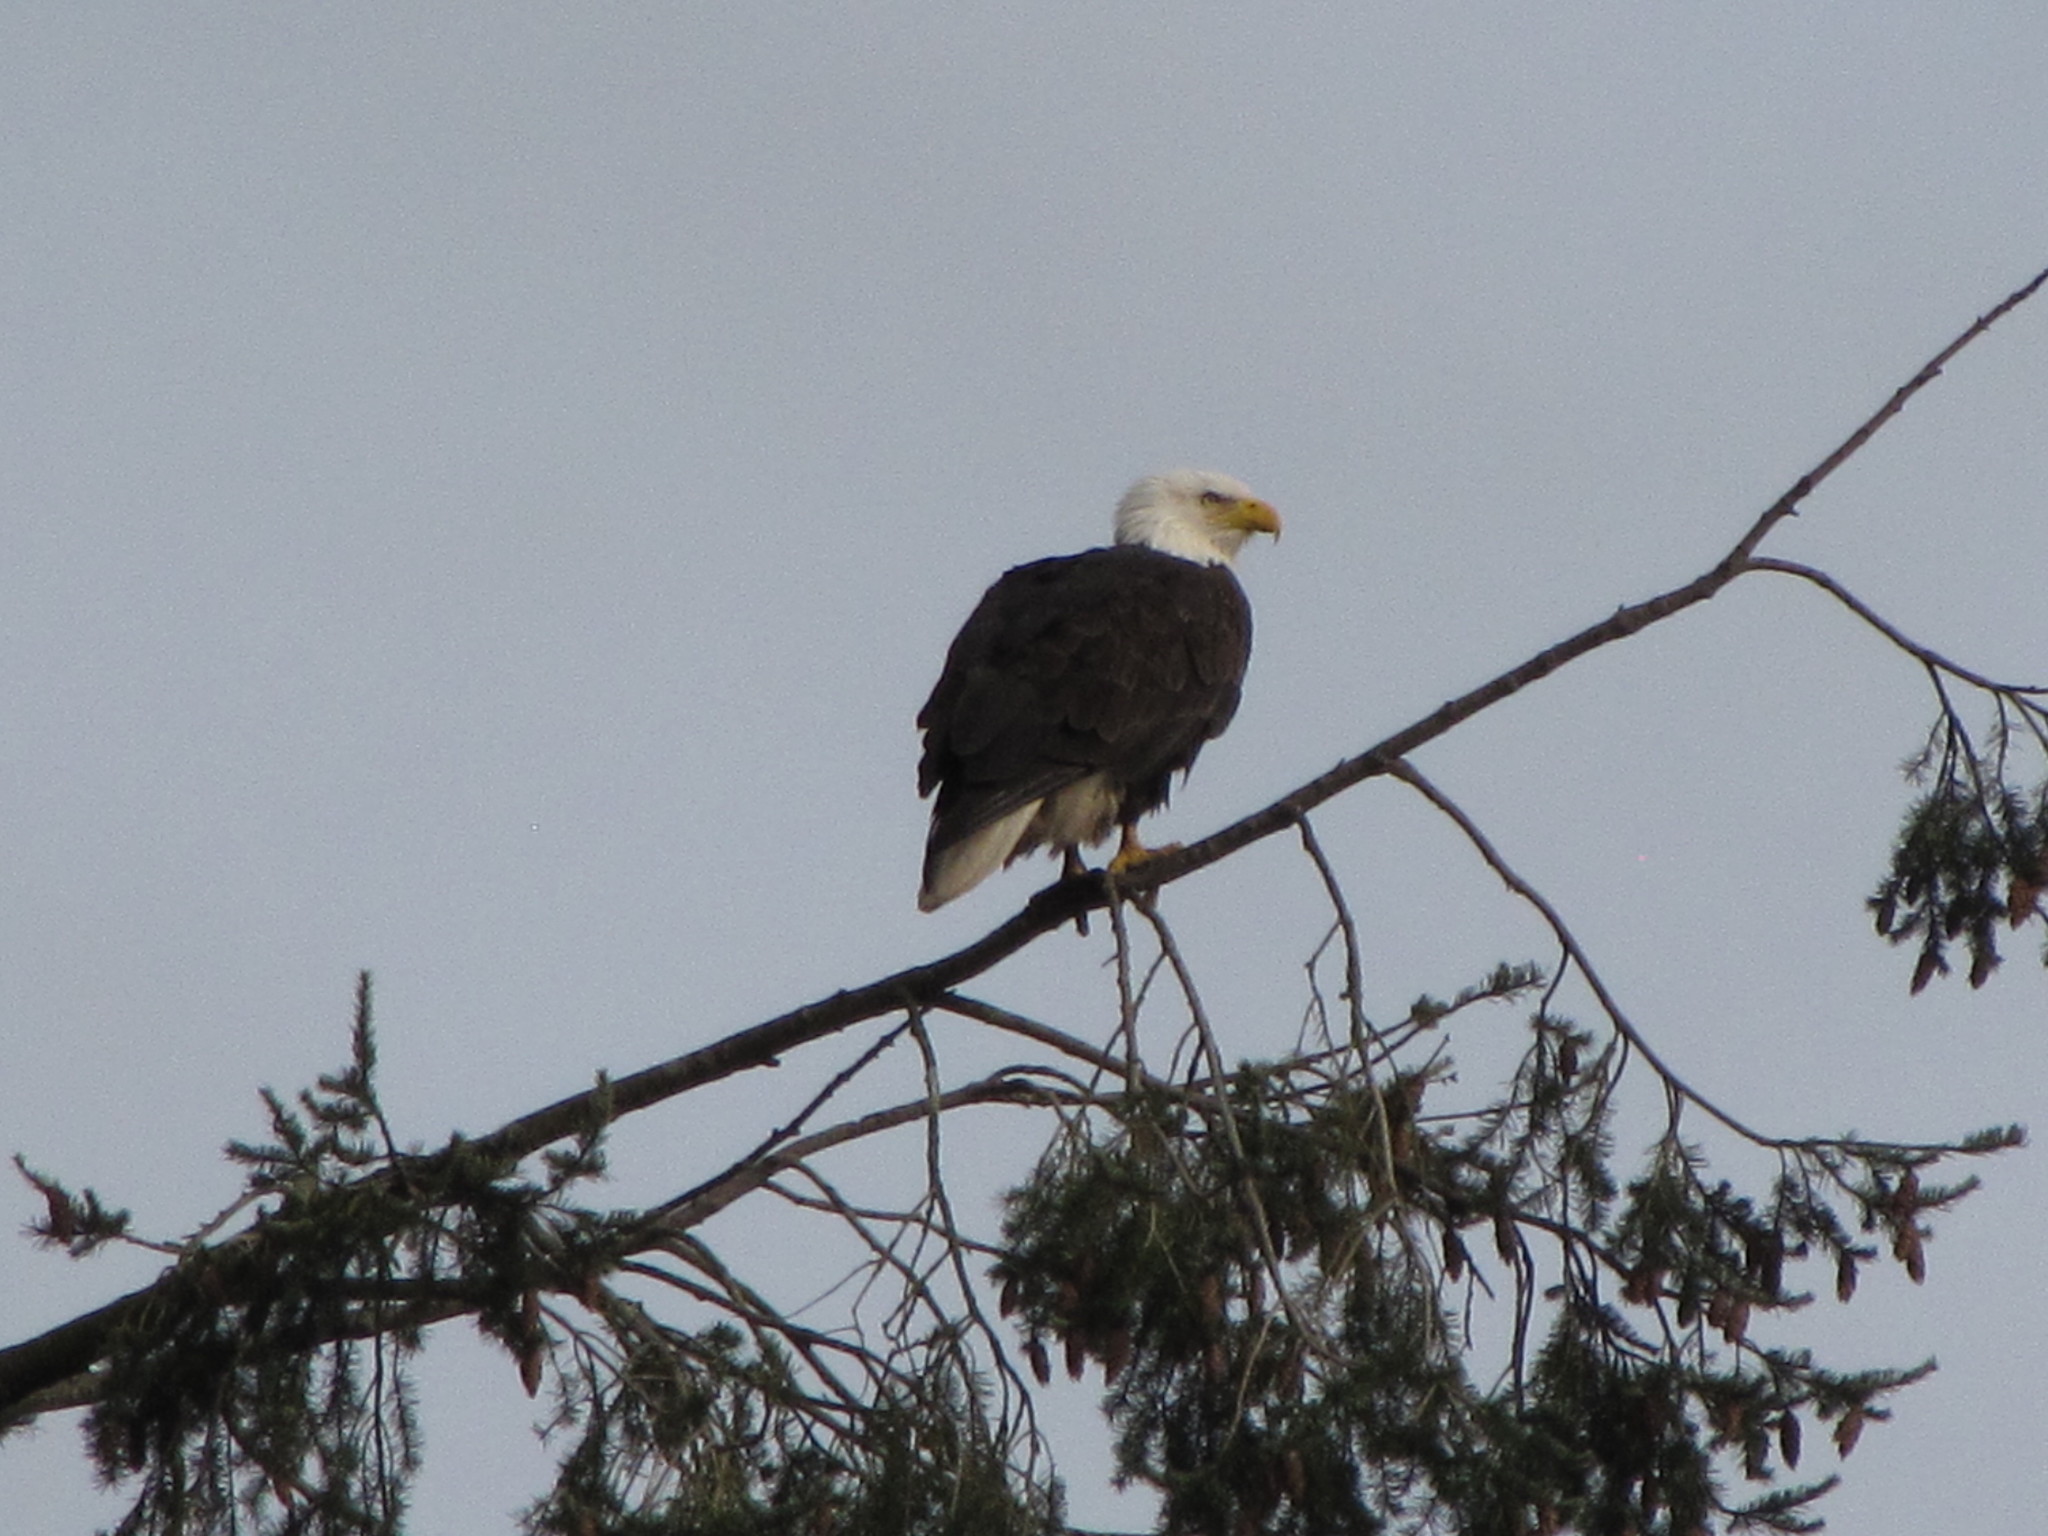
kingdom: Animalia
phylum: Chordata
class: Aves
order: Accipitriformes
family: Accipitridae
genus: Haliaeetus
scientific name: Haliaeetus leucocephalus
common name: Bald eagle
